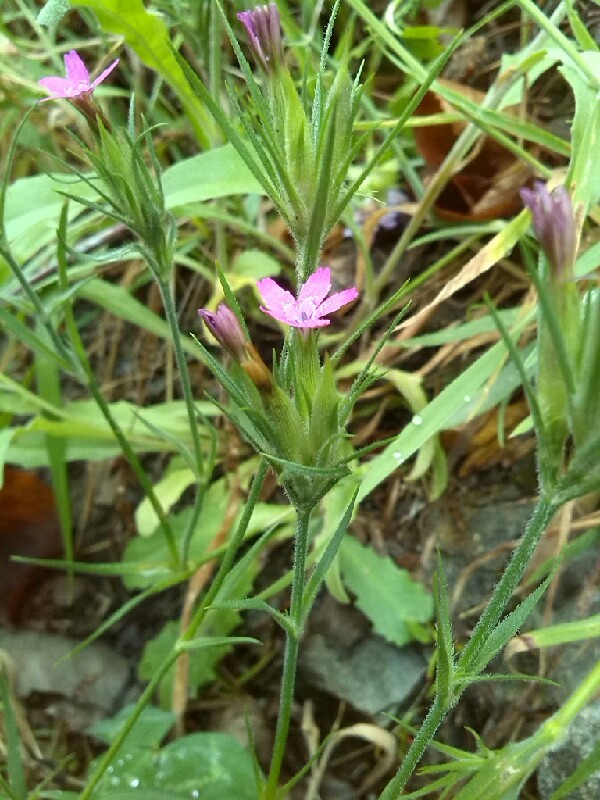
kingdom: Plantae
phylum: Tracheophyta
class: Magnoliopsida
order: Caryophyllales
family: Caryophyllaceae
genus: Dianthus
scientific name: Dianthus armeria
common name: Deptford pink
